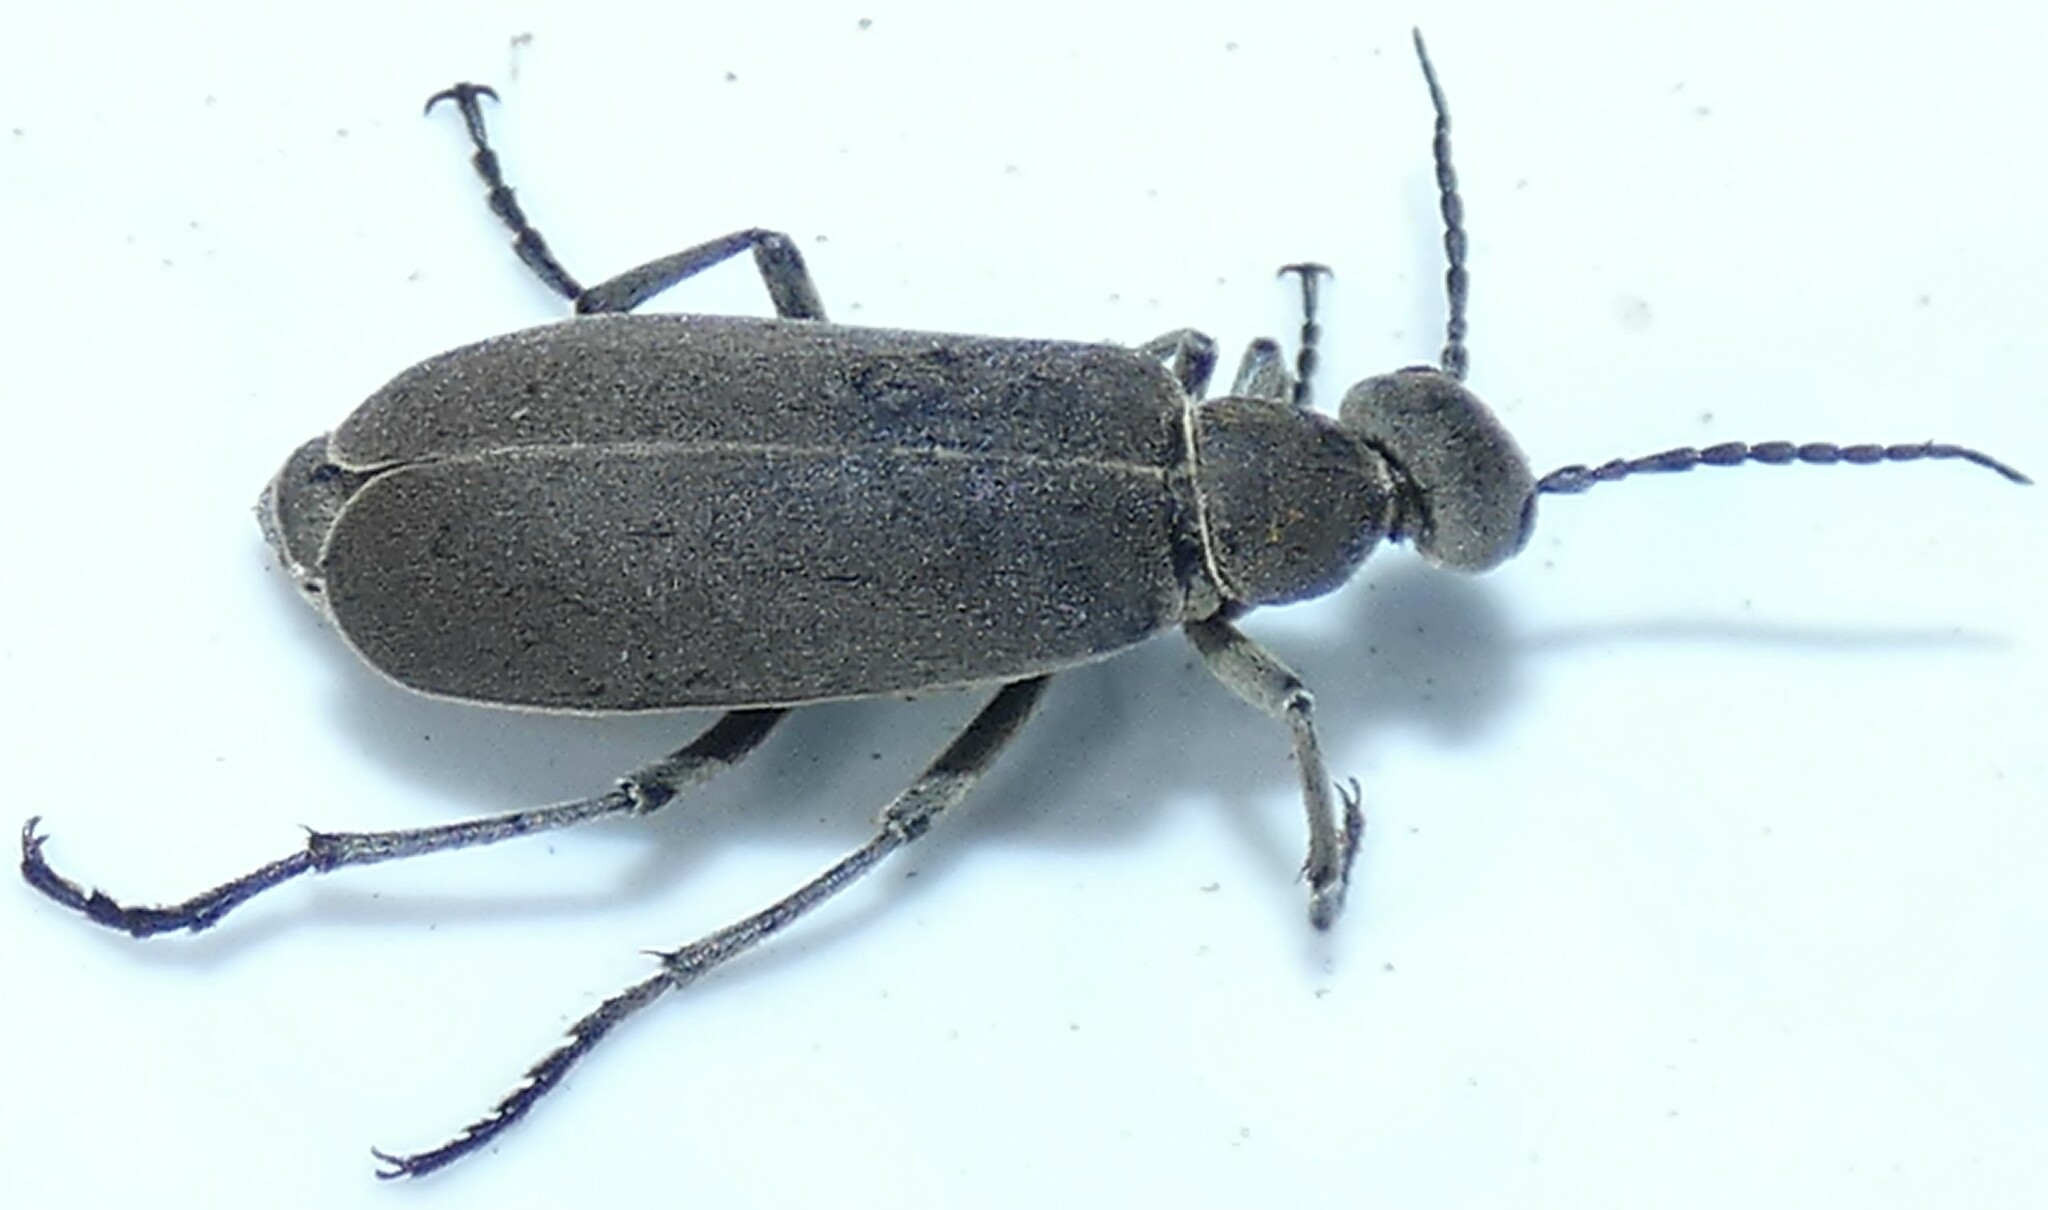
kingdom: Animalia
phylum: Arthropoda
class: Insecta
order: Coleoptera
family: Meloidae
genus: Epicauta
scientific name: Epicauta cinerea
